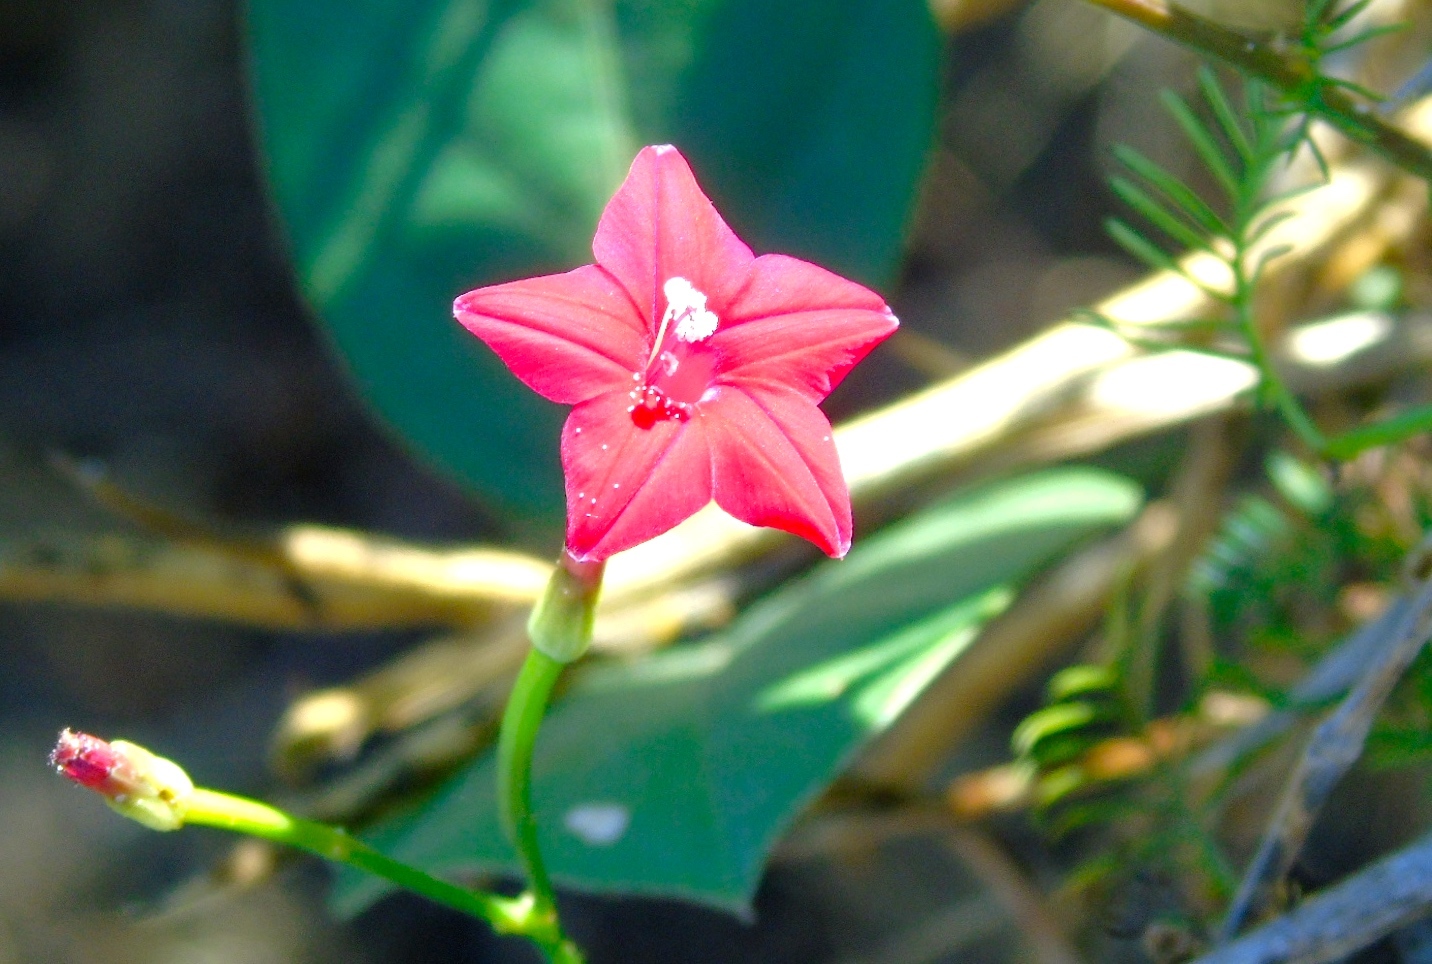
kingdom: Plantae
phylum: Tracheophyta
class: Magnoliopsida
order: Solanales
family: Convolvulaceae
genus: Ipomoea
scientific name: Ipomoea quamoclit
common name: Cypress vine
